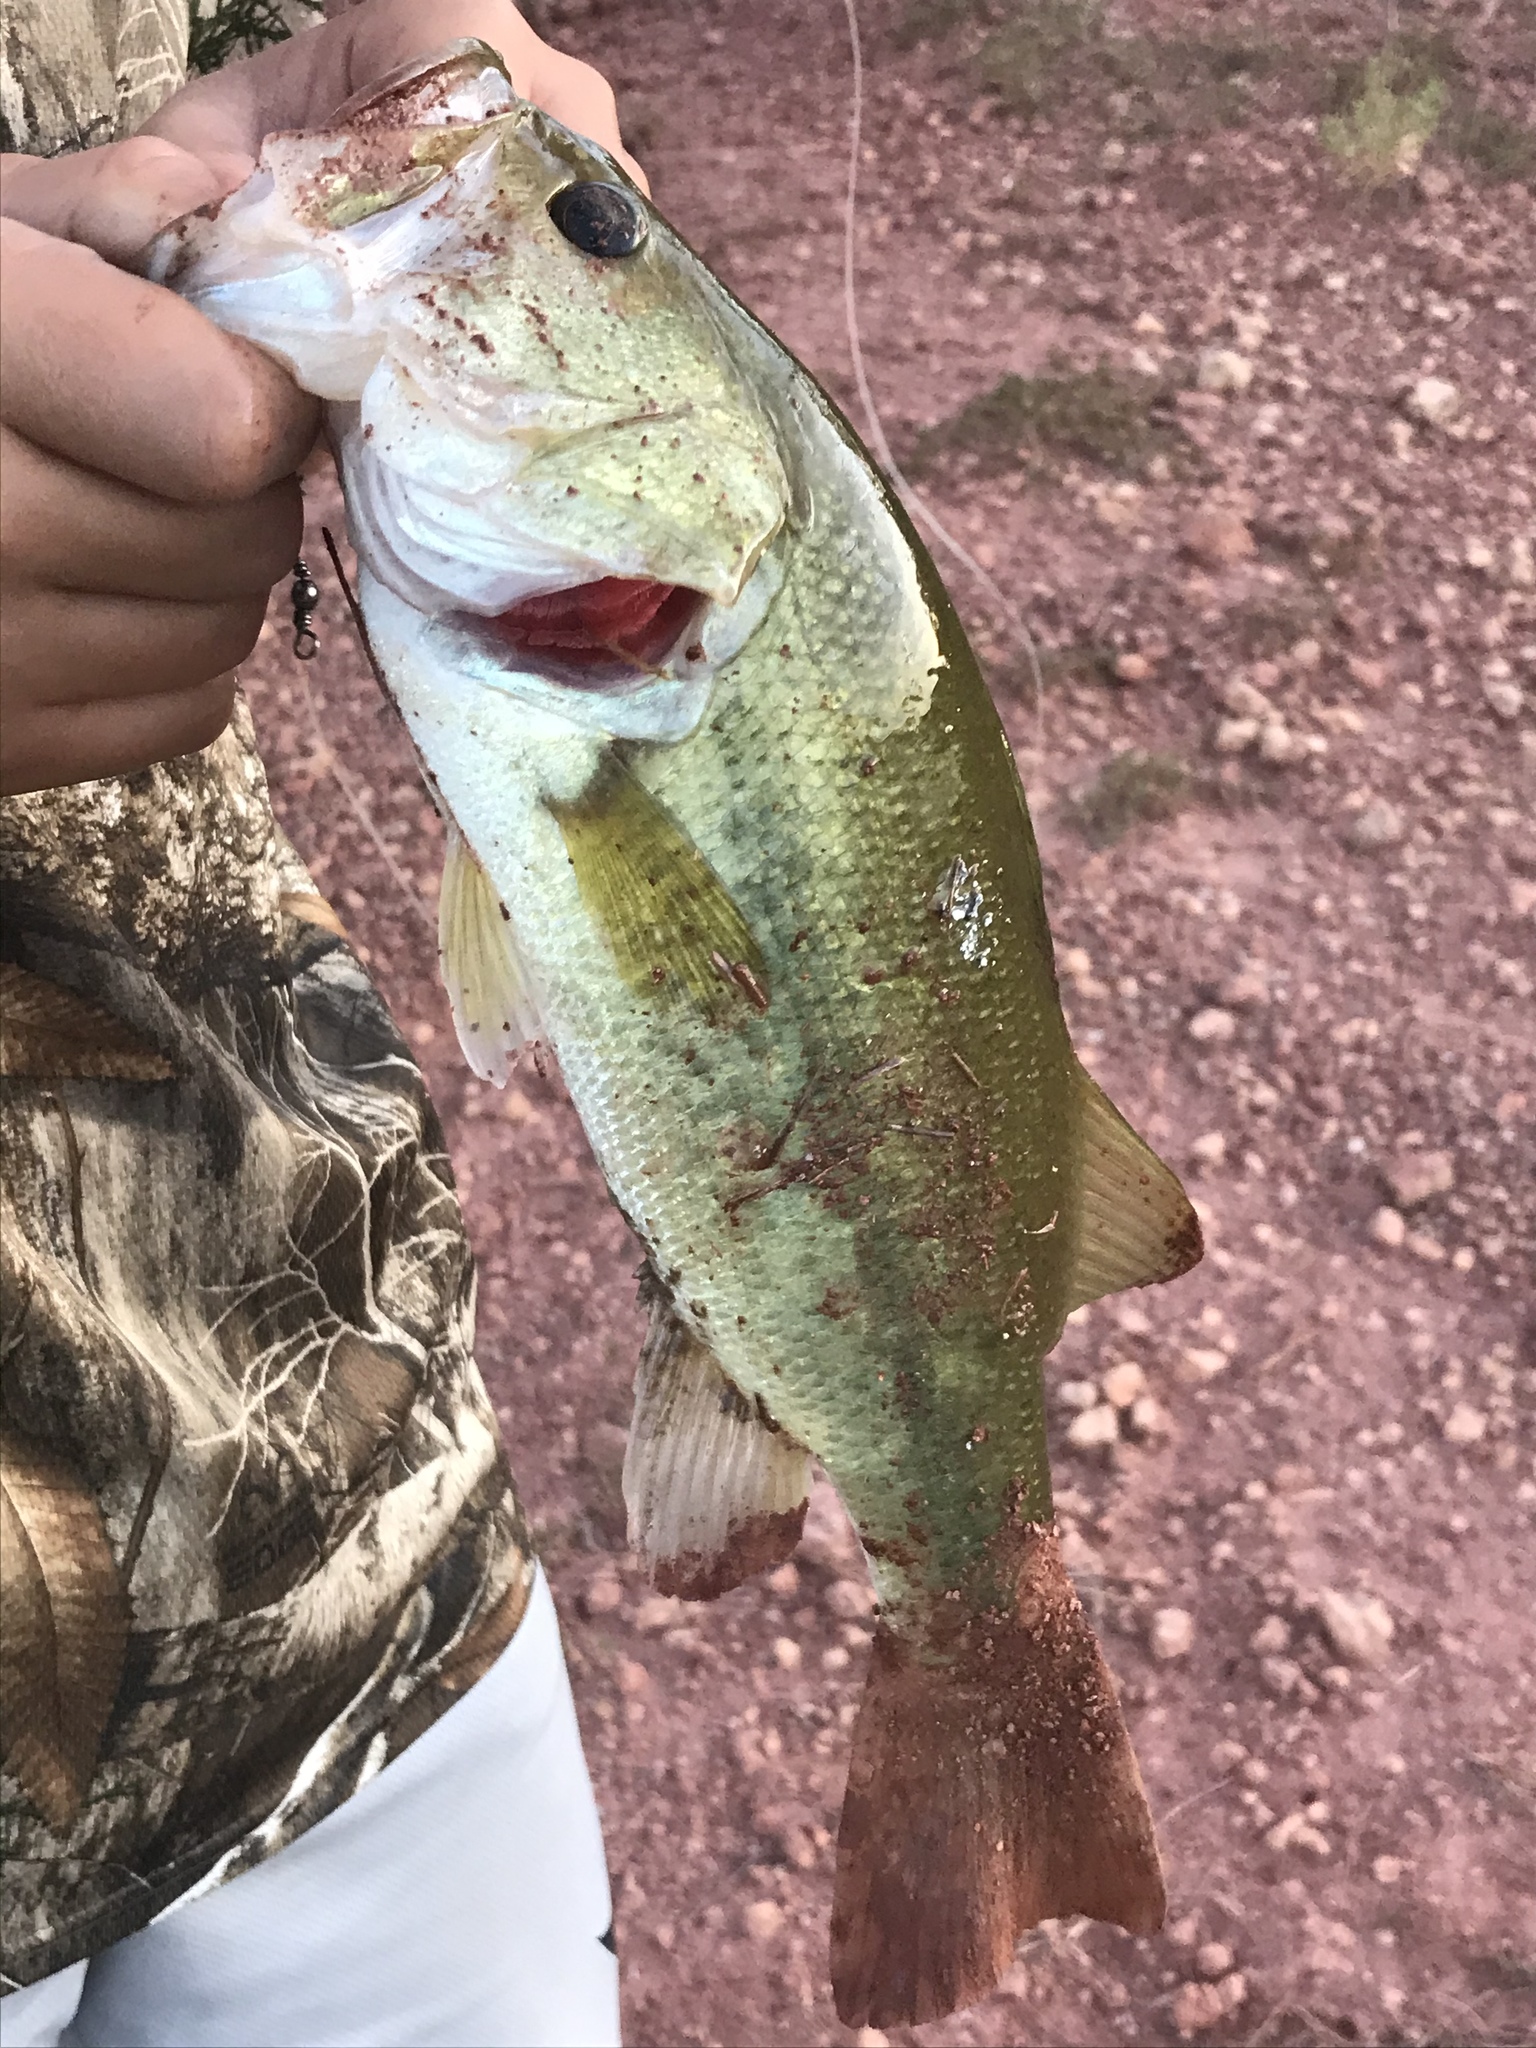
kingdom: Animalia
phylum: Chordata
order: Perciformes
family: Centrarchidae
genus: Micropterus
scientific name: Micropterus
